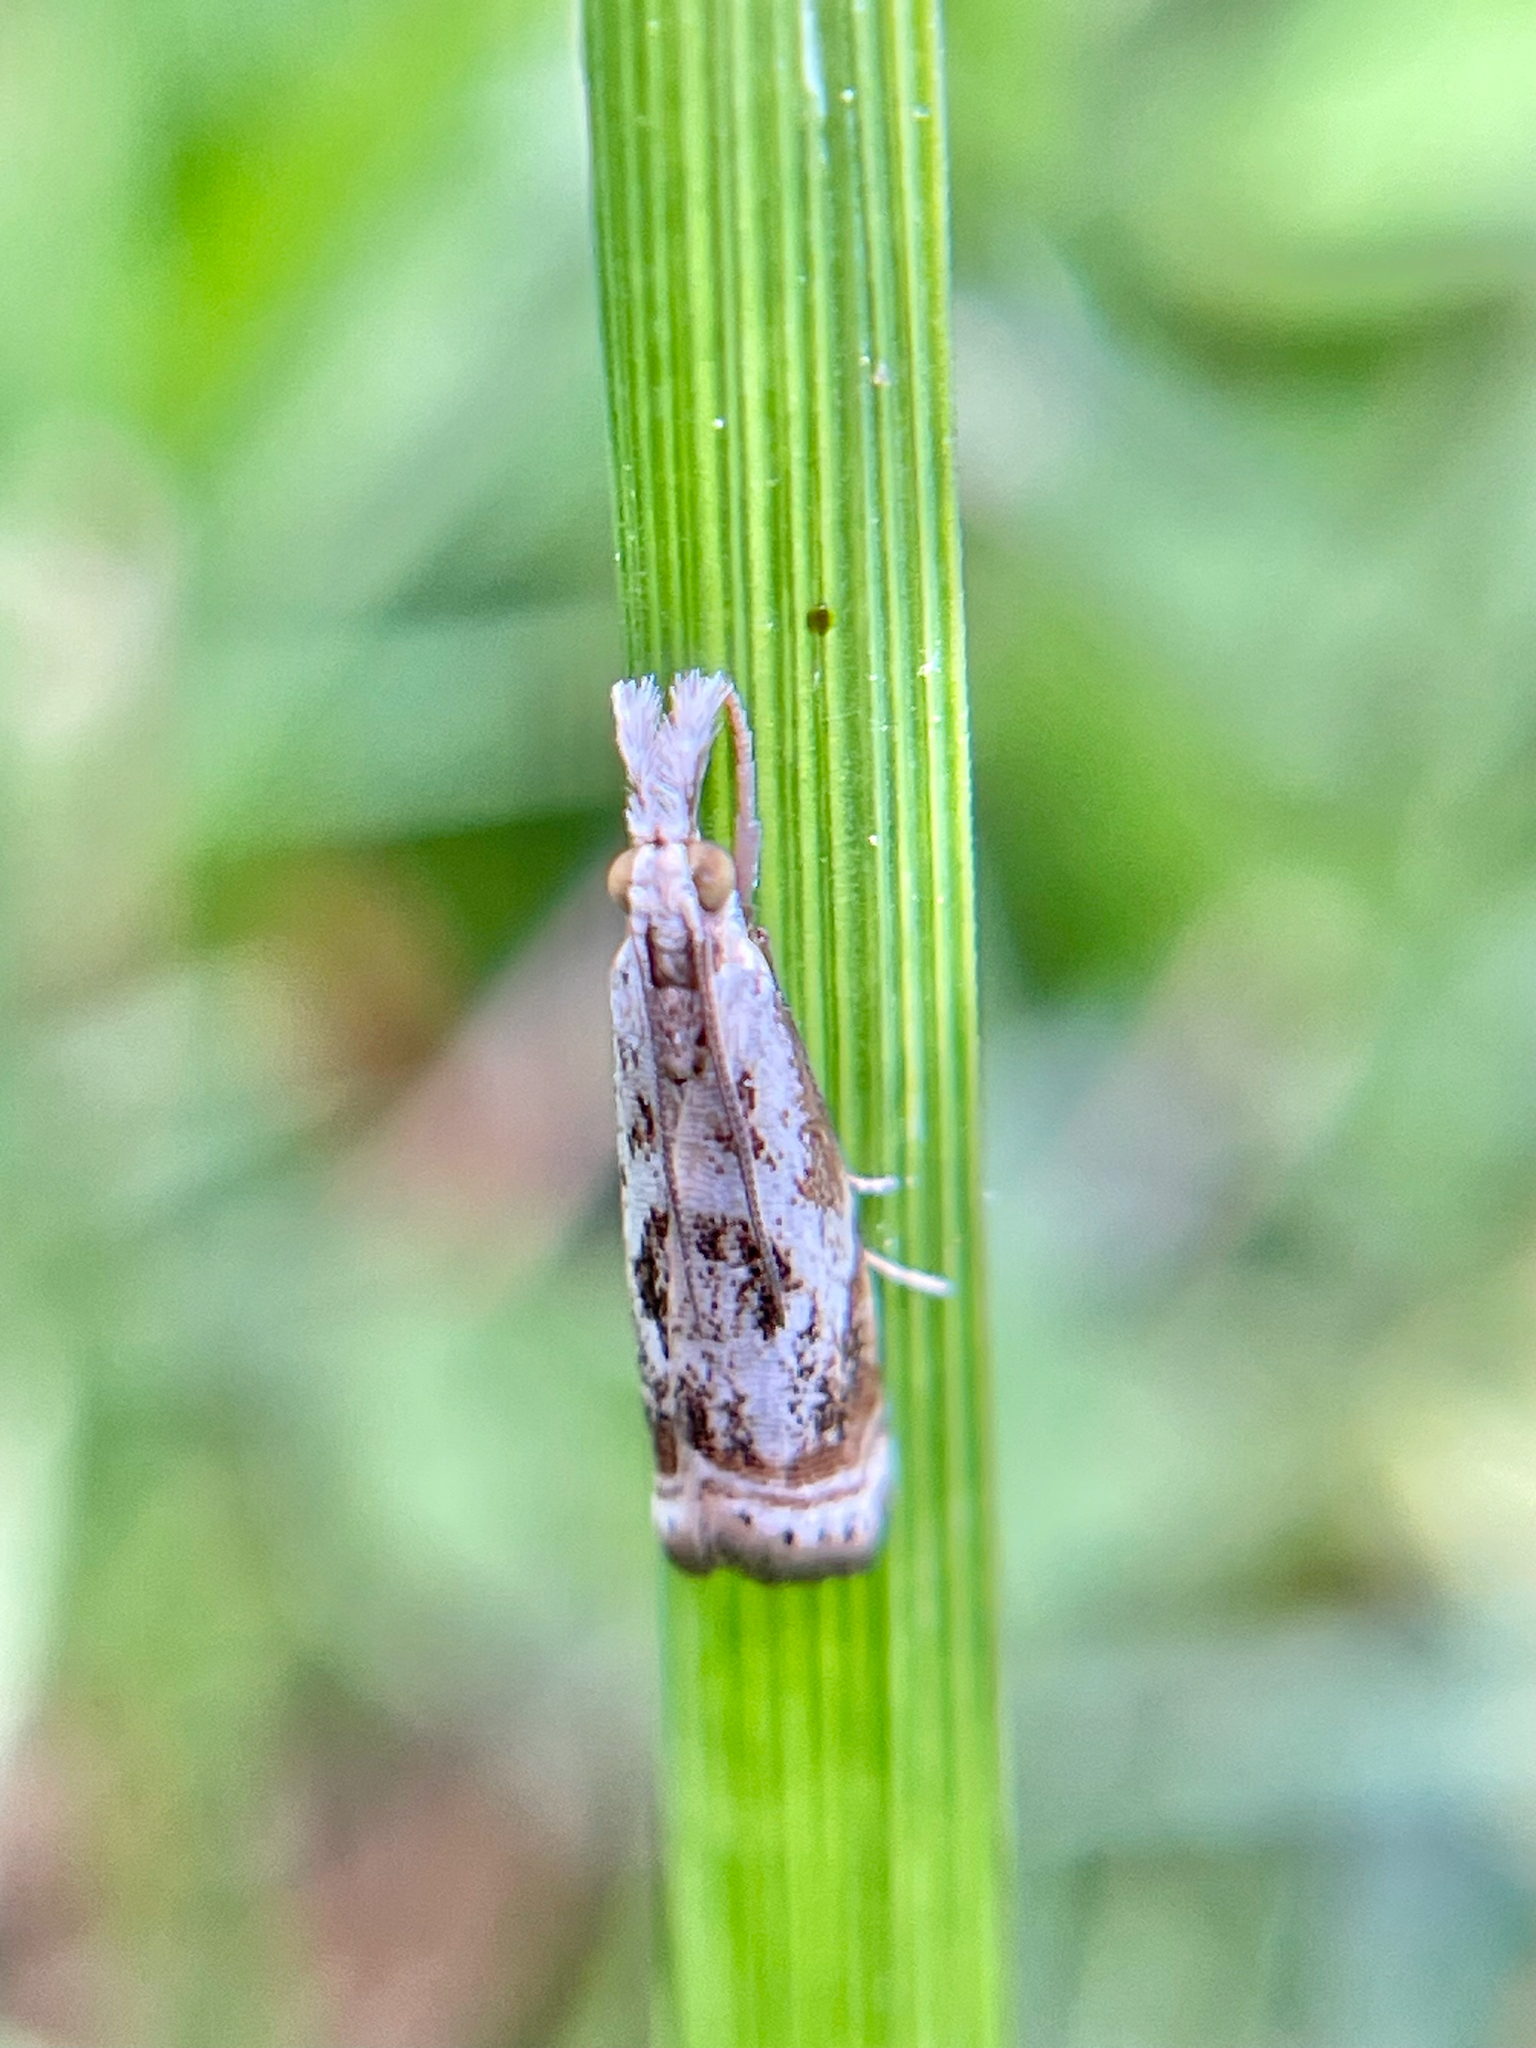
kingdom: Animalia
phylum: Arthropoda
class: Insecta
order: Lepidoptera
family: Crambidae
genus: Microcrambus
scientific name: Microcrambus elegans
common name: Elegant grass-veneer
